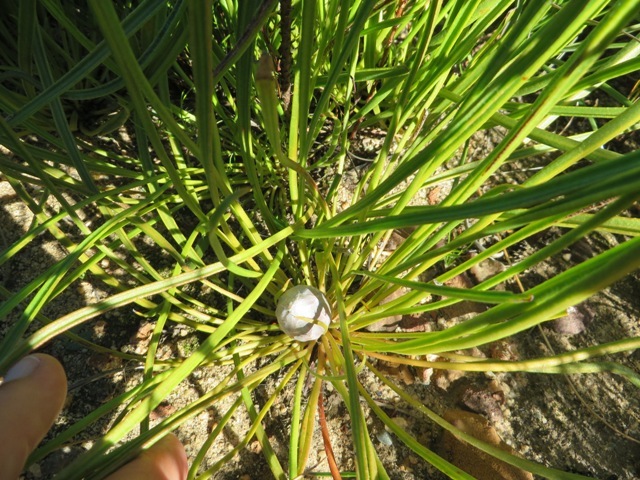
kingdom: Plantae
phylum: Tracheophyta
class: Magnoliopsida
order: Proteales
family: Proteaceae
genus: Protea
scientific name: Protea scabra
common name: Sandpaper-leaf sugarbush
